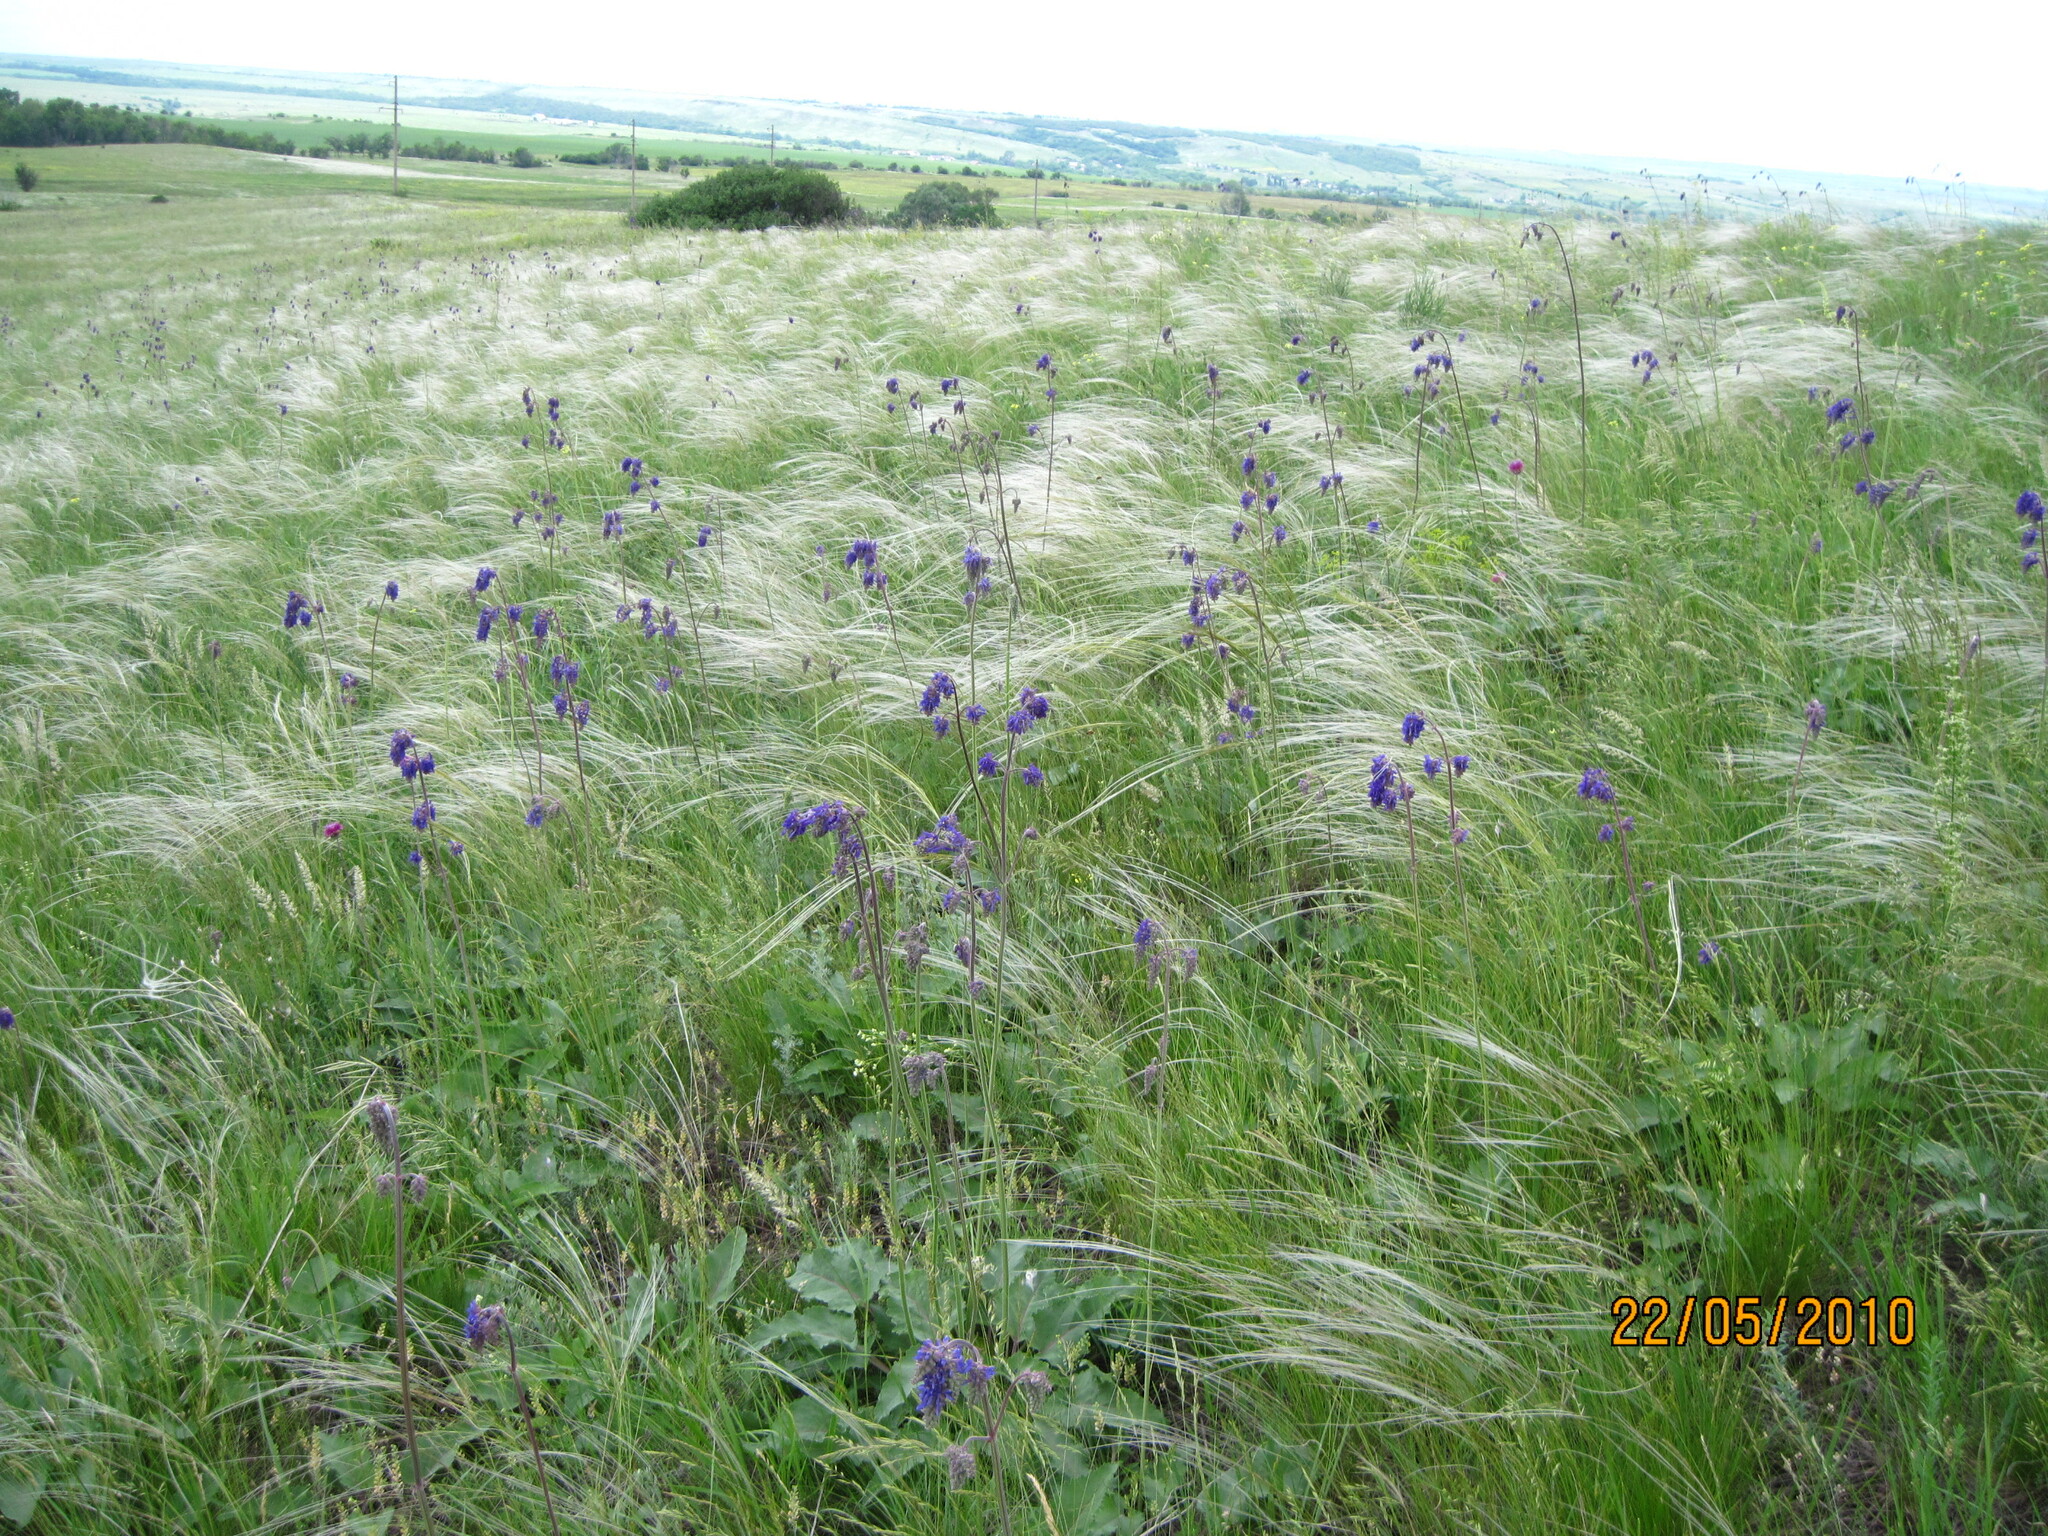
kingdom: Plantae
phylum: Tracheophyta
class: Magnoliopsida
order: Lamiales
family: Lamiaceae
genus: Salvia
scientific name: Salvia nutans
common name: Nodding sage
